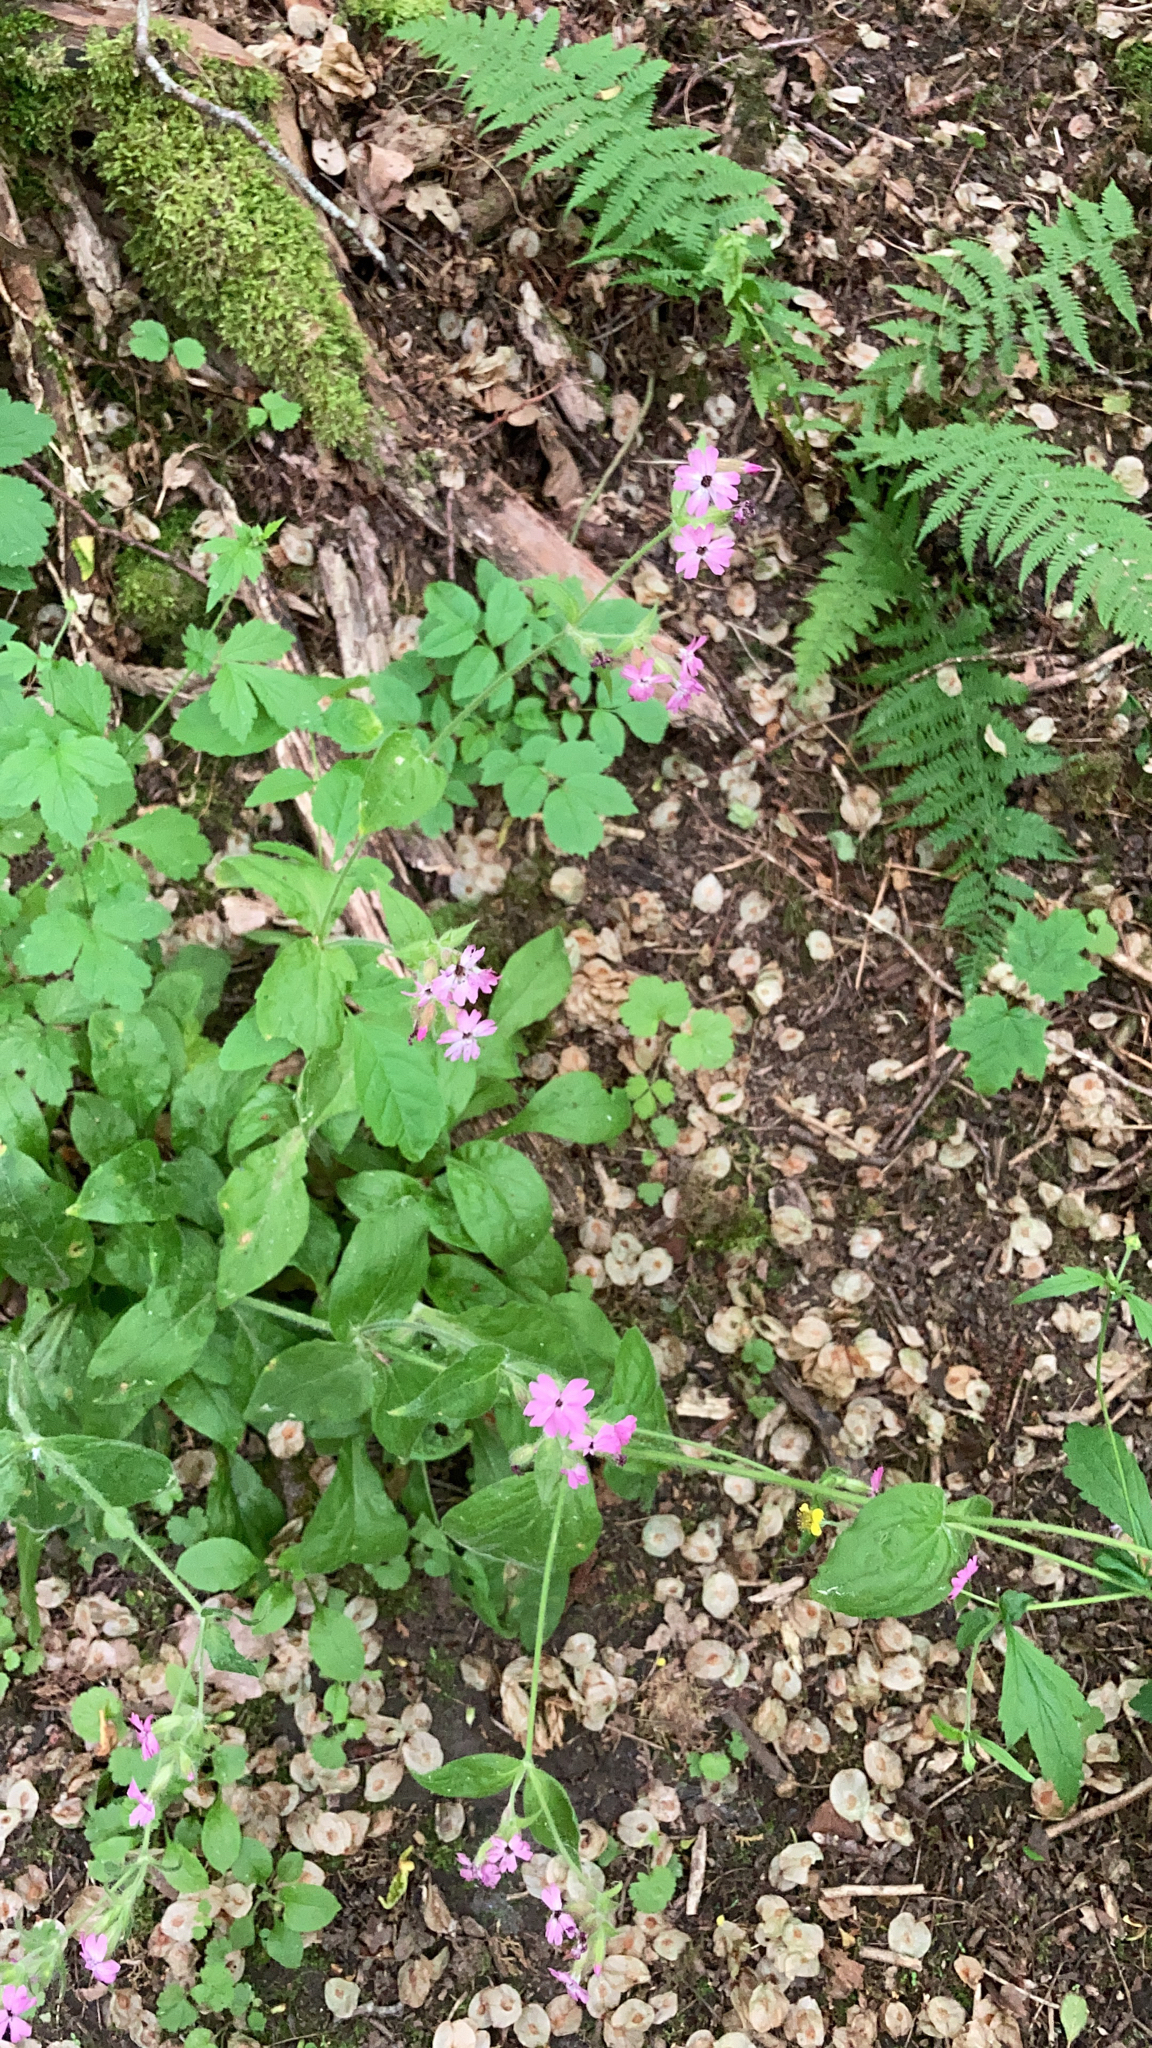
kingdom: Plantae
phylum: Tracheophyta
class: Magnoliopsida
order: Caryophyllales
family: Caryophyllaceae
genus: Silene
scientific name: Silene dioica
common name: Red campion
